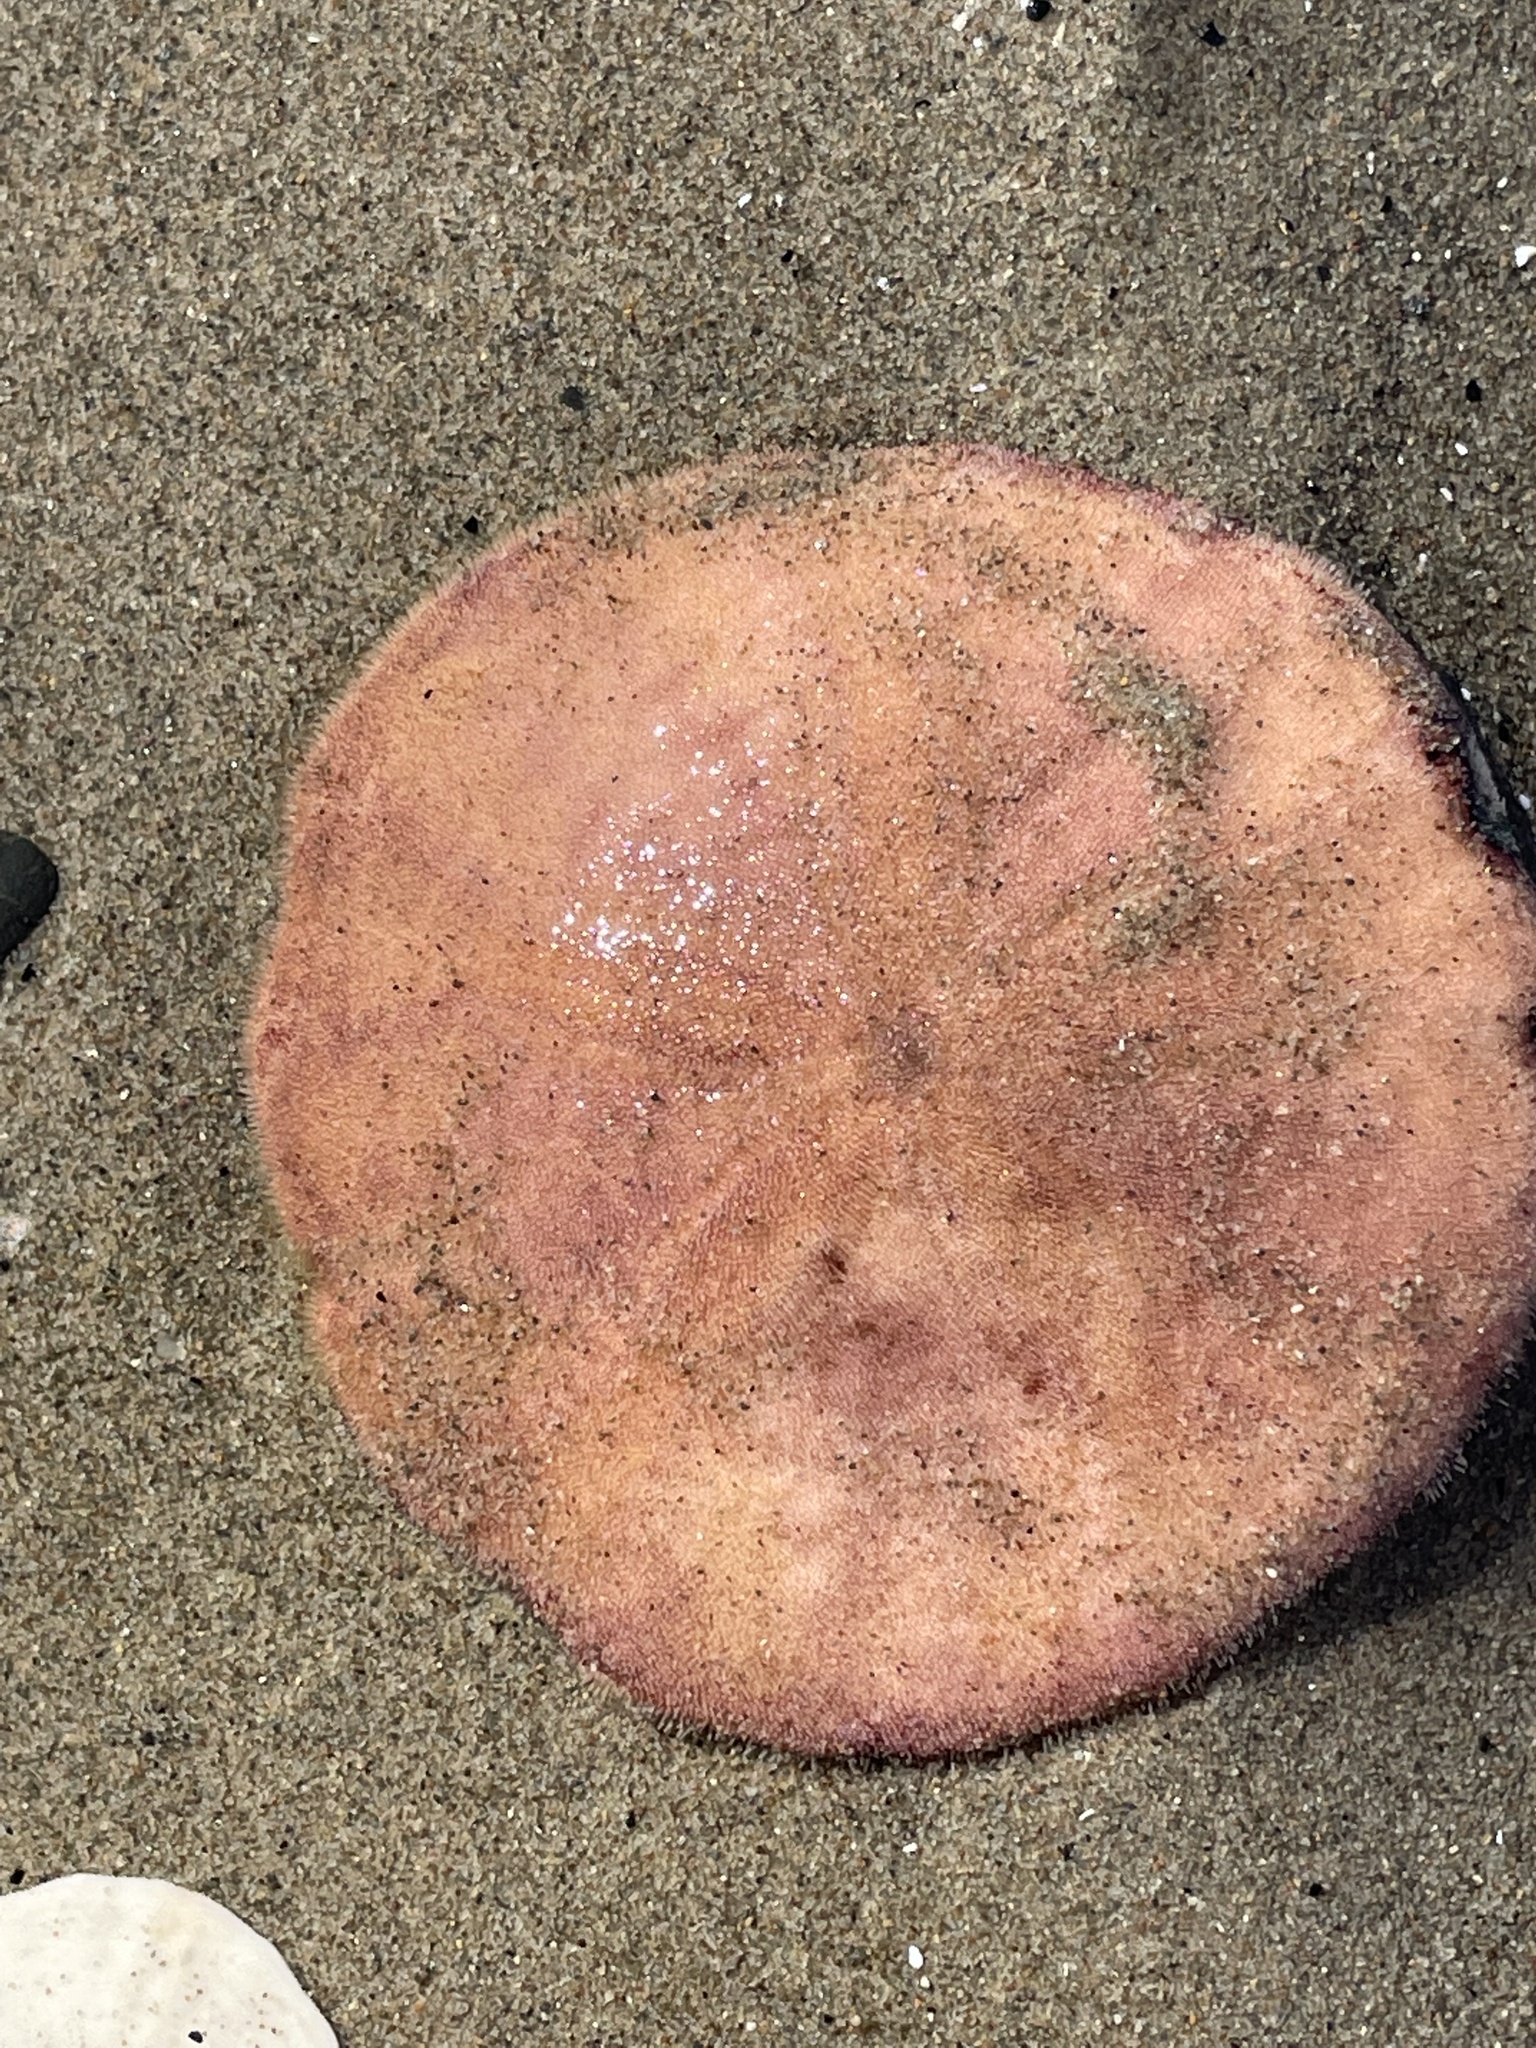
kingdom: Animalia
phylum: Echinodermata
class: Echinoidea
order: Echinolampadacea
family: Echinarachniidae
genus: Echinarachnius
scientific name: Echinarachnius parma
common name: Common sand dollar
